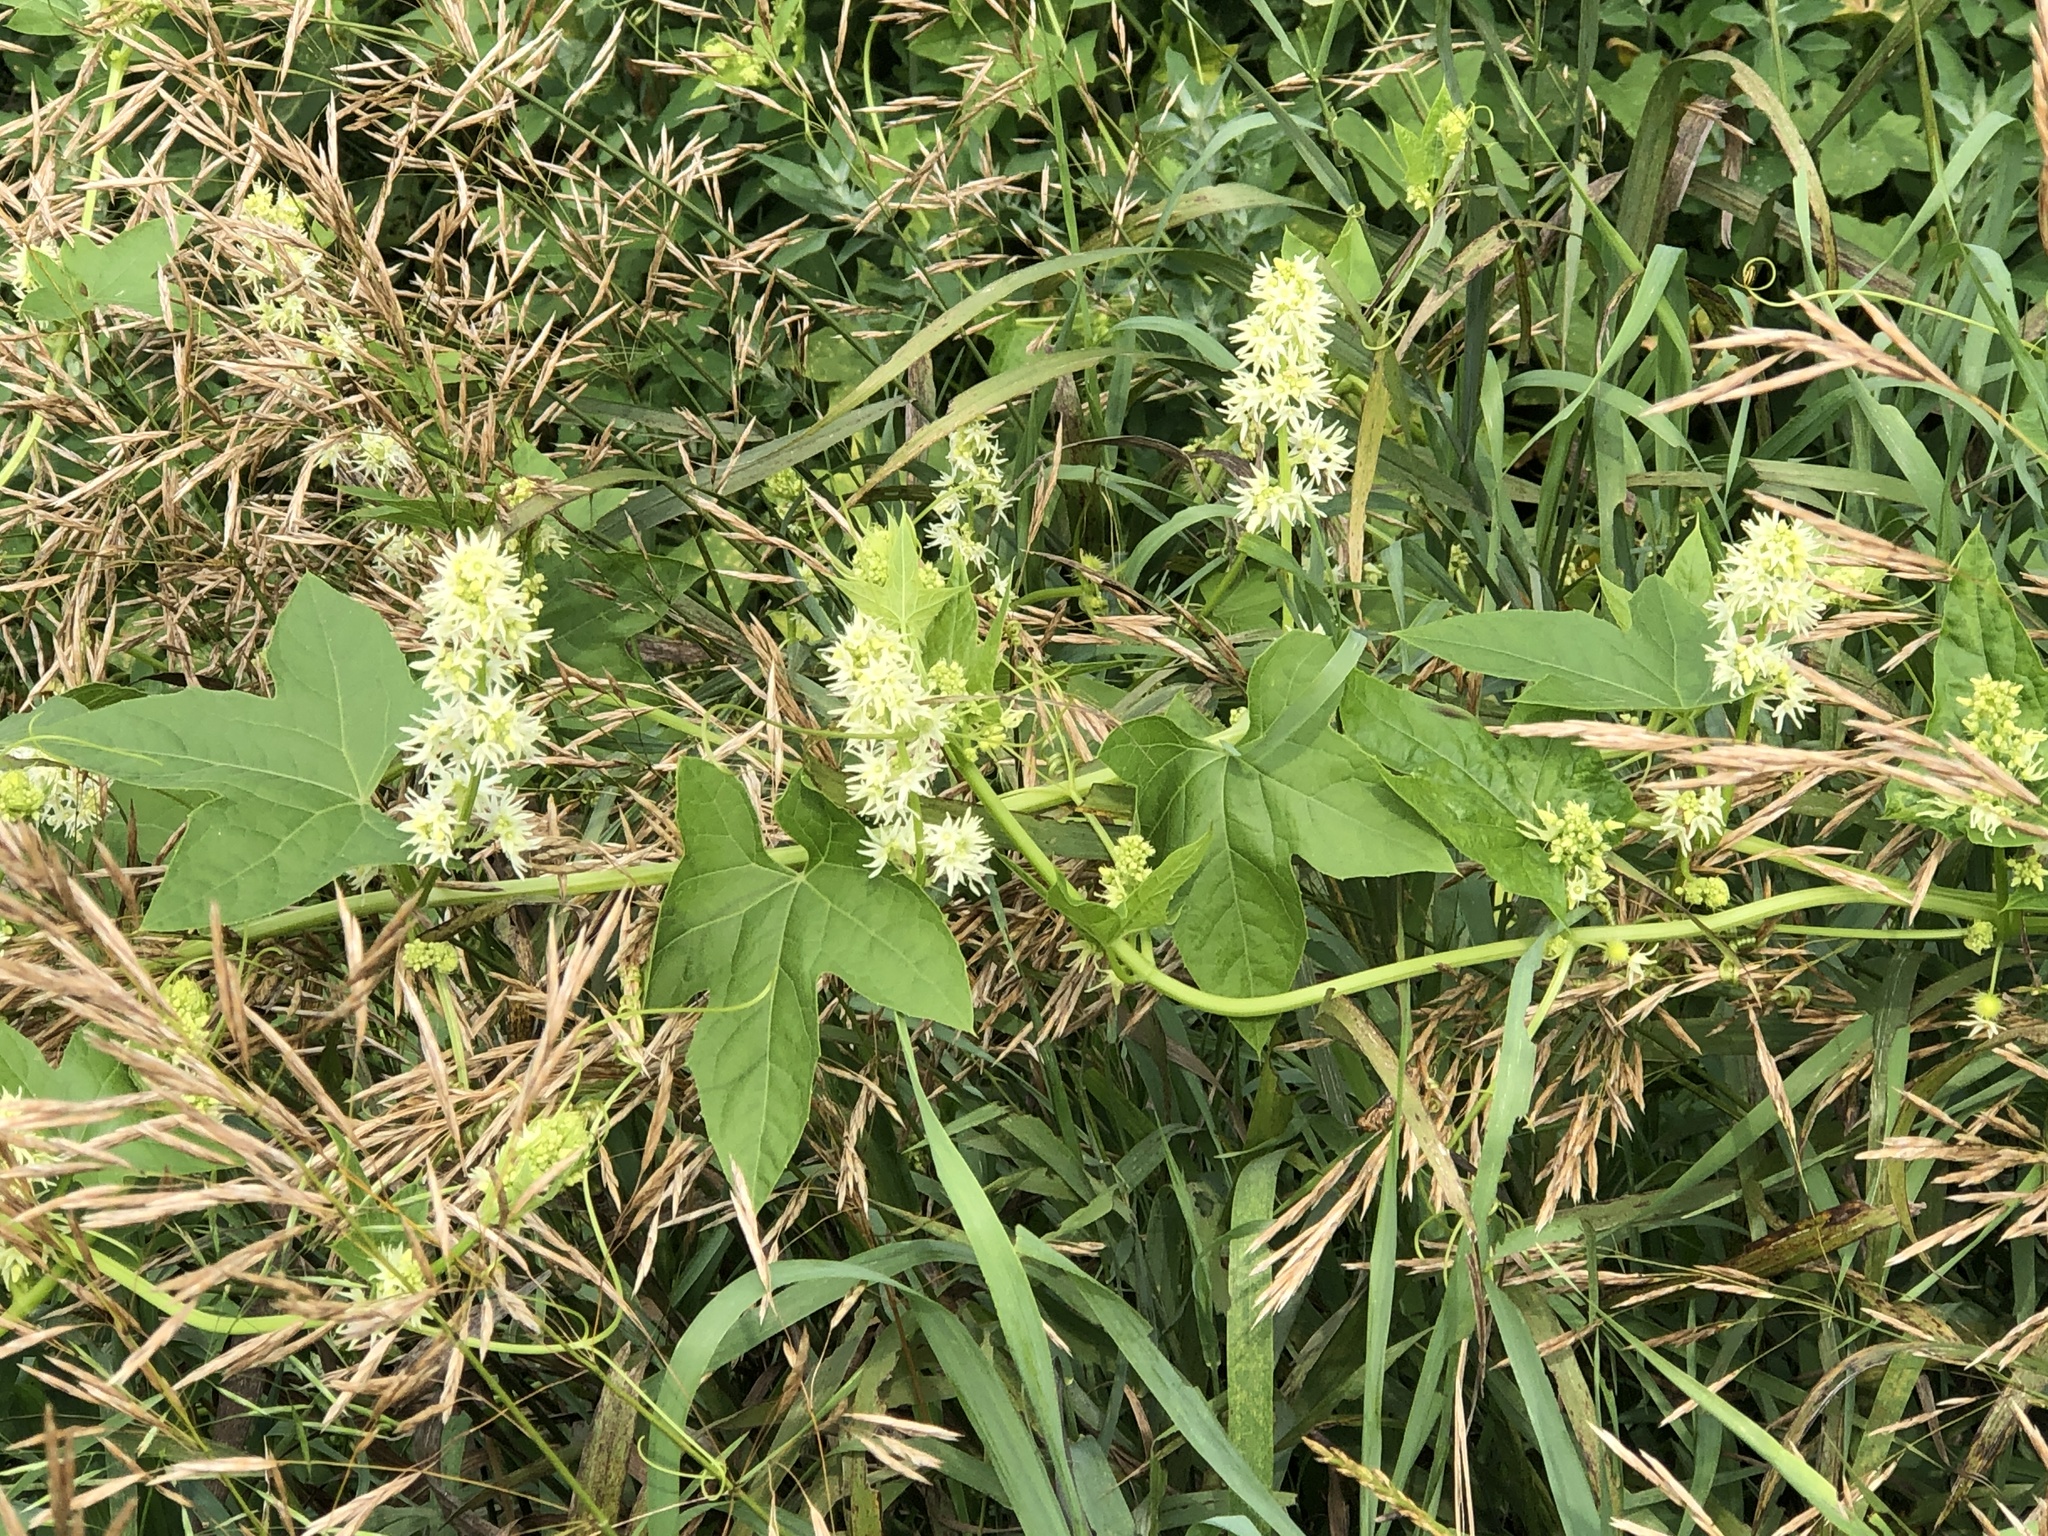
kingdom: Plantae
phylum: Tracheophyta
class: Magnoliopsida
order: Cucurbitales
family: Cucurbitaceae
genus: Echinocystis
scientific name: Echinocystis lobata
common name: Wild cucumber
